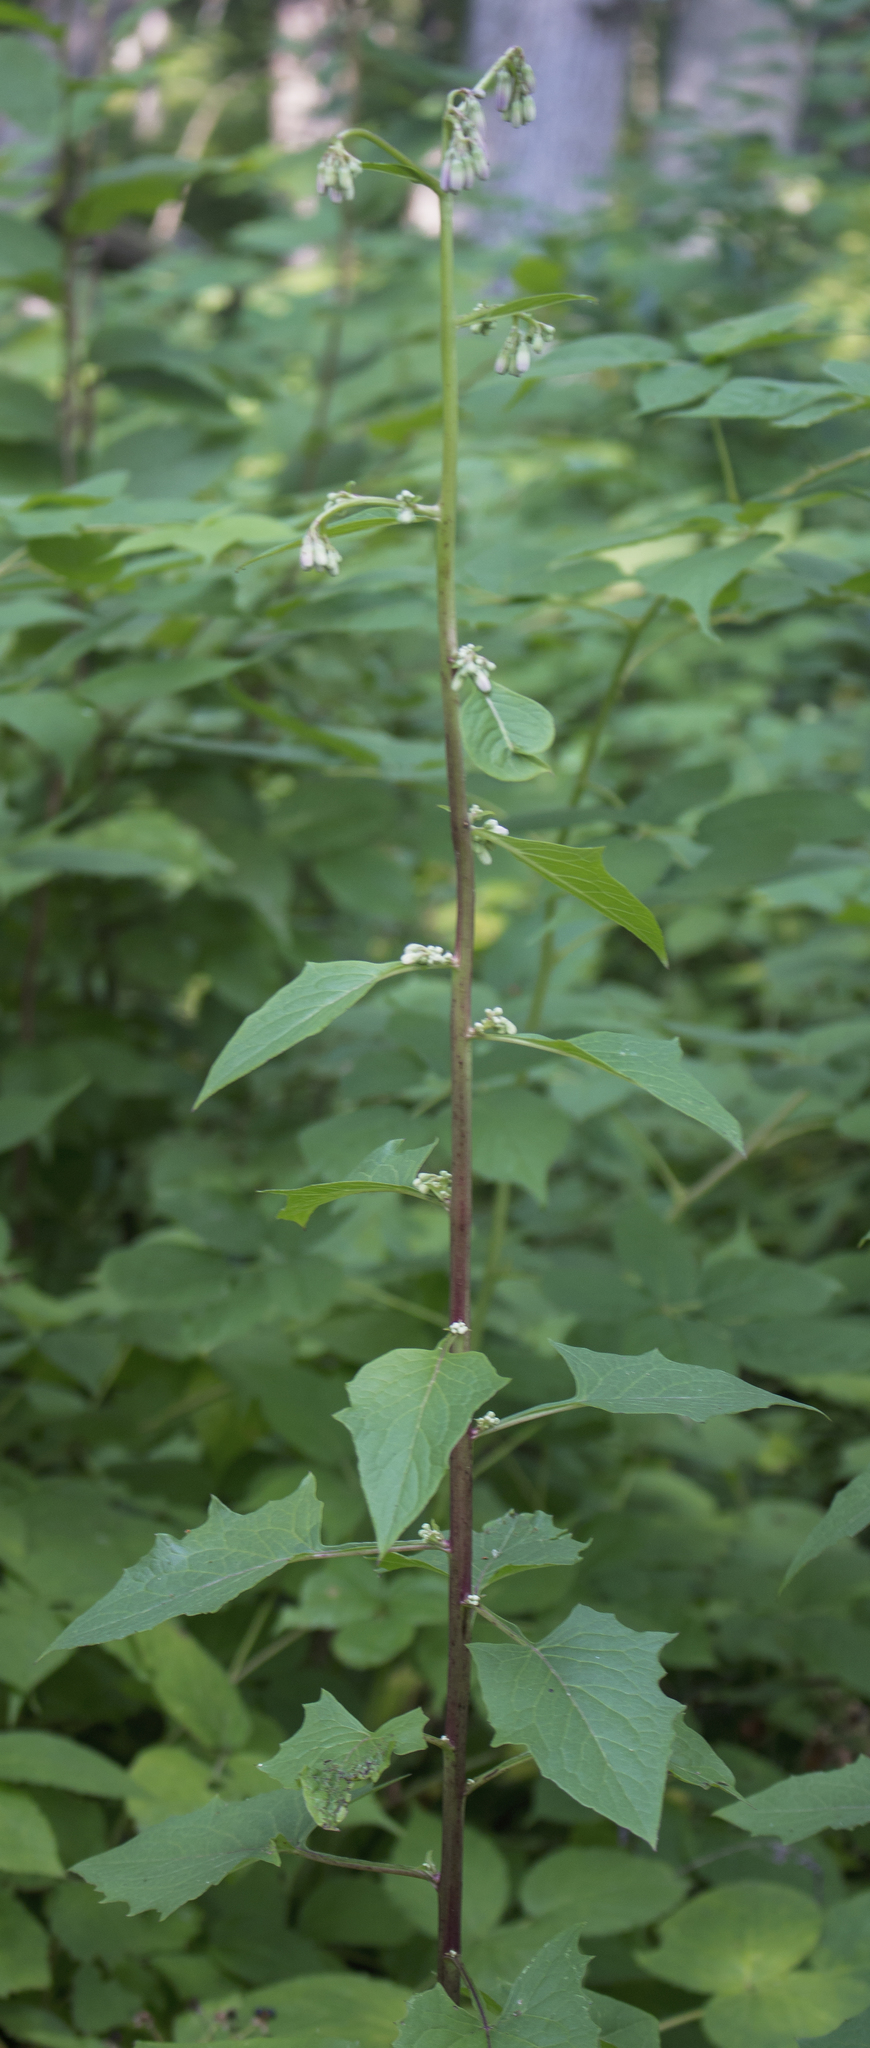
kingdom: Plantae
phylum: Tracheophyta
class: Magnoliopsida
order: Asterales
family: Asteraceae
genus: Nabalus
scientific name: Nabalus albus
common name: White rattlesnakeroot
